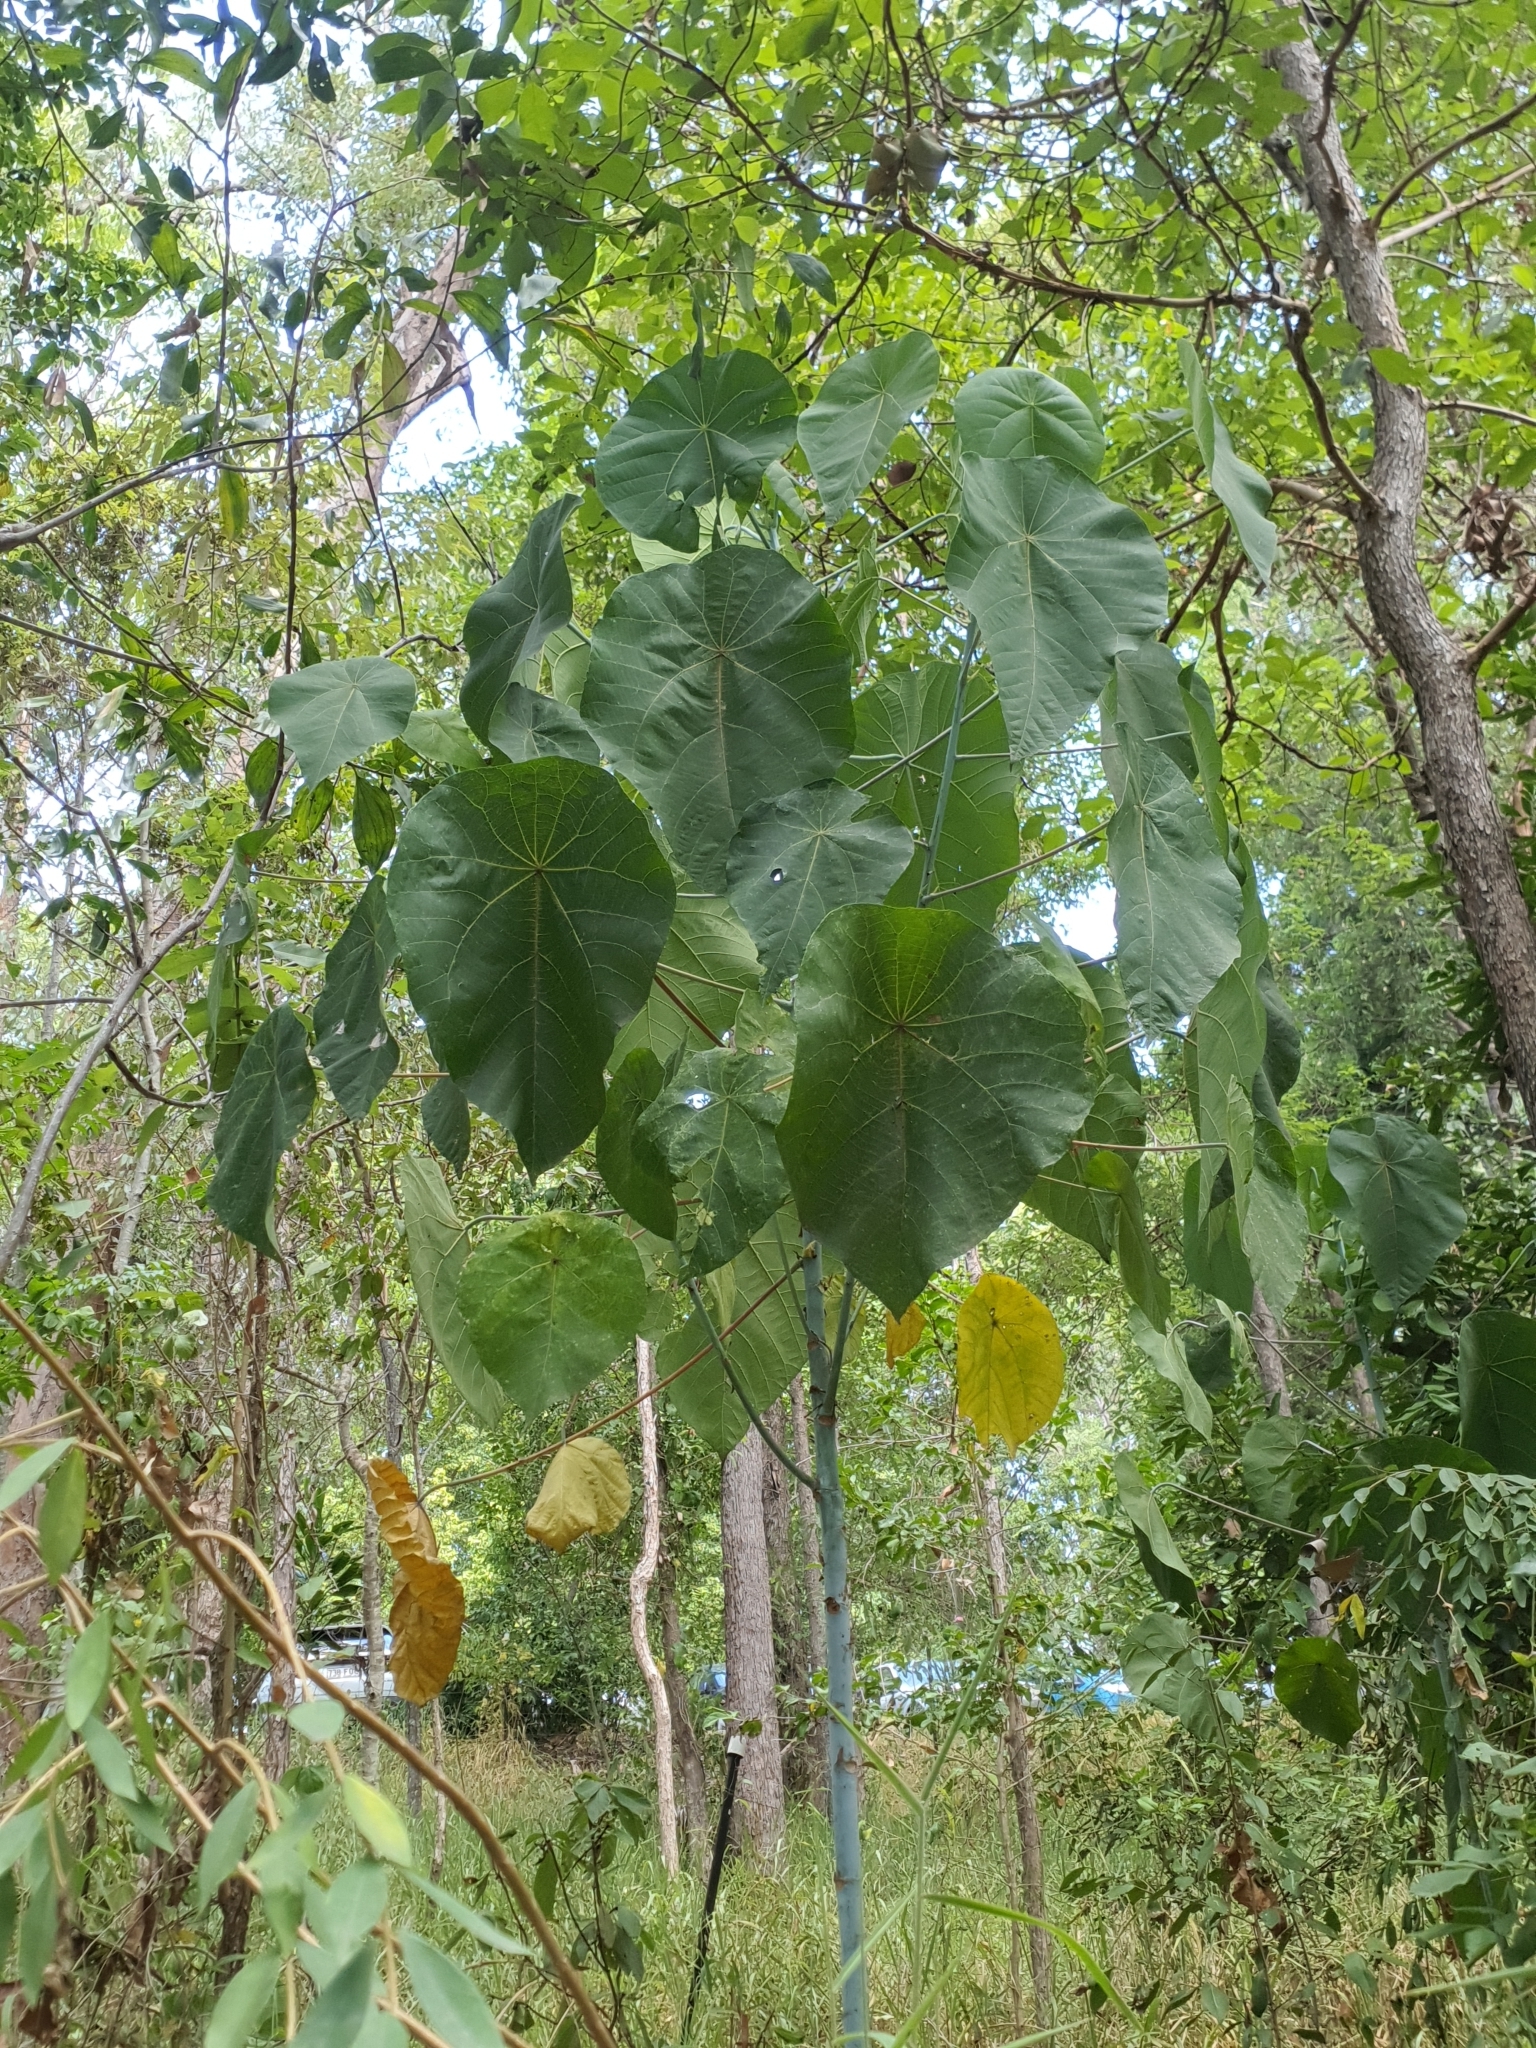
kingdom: Plantae
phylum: Tracheophyta
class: Magnoliopsida
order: Malpighiales
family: Euphorbiaceae
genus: Macaranga
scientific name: Macaranga tanarius
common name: Parasol leaf tree
